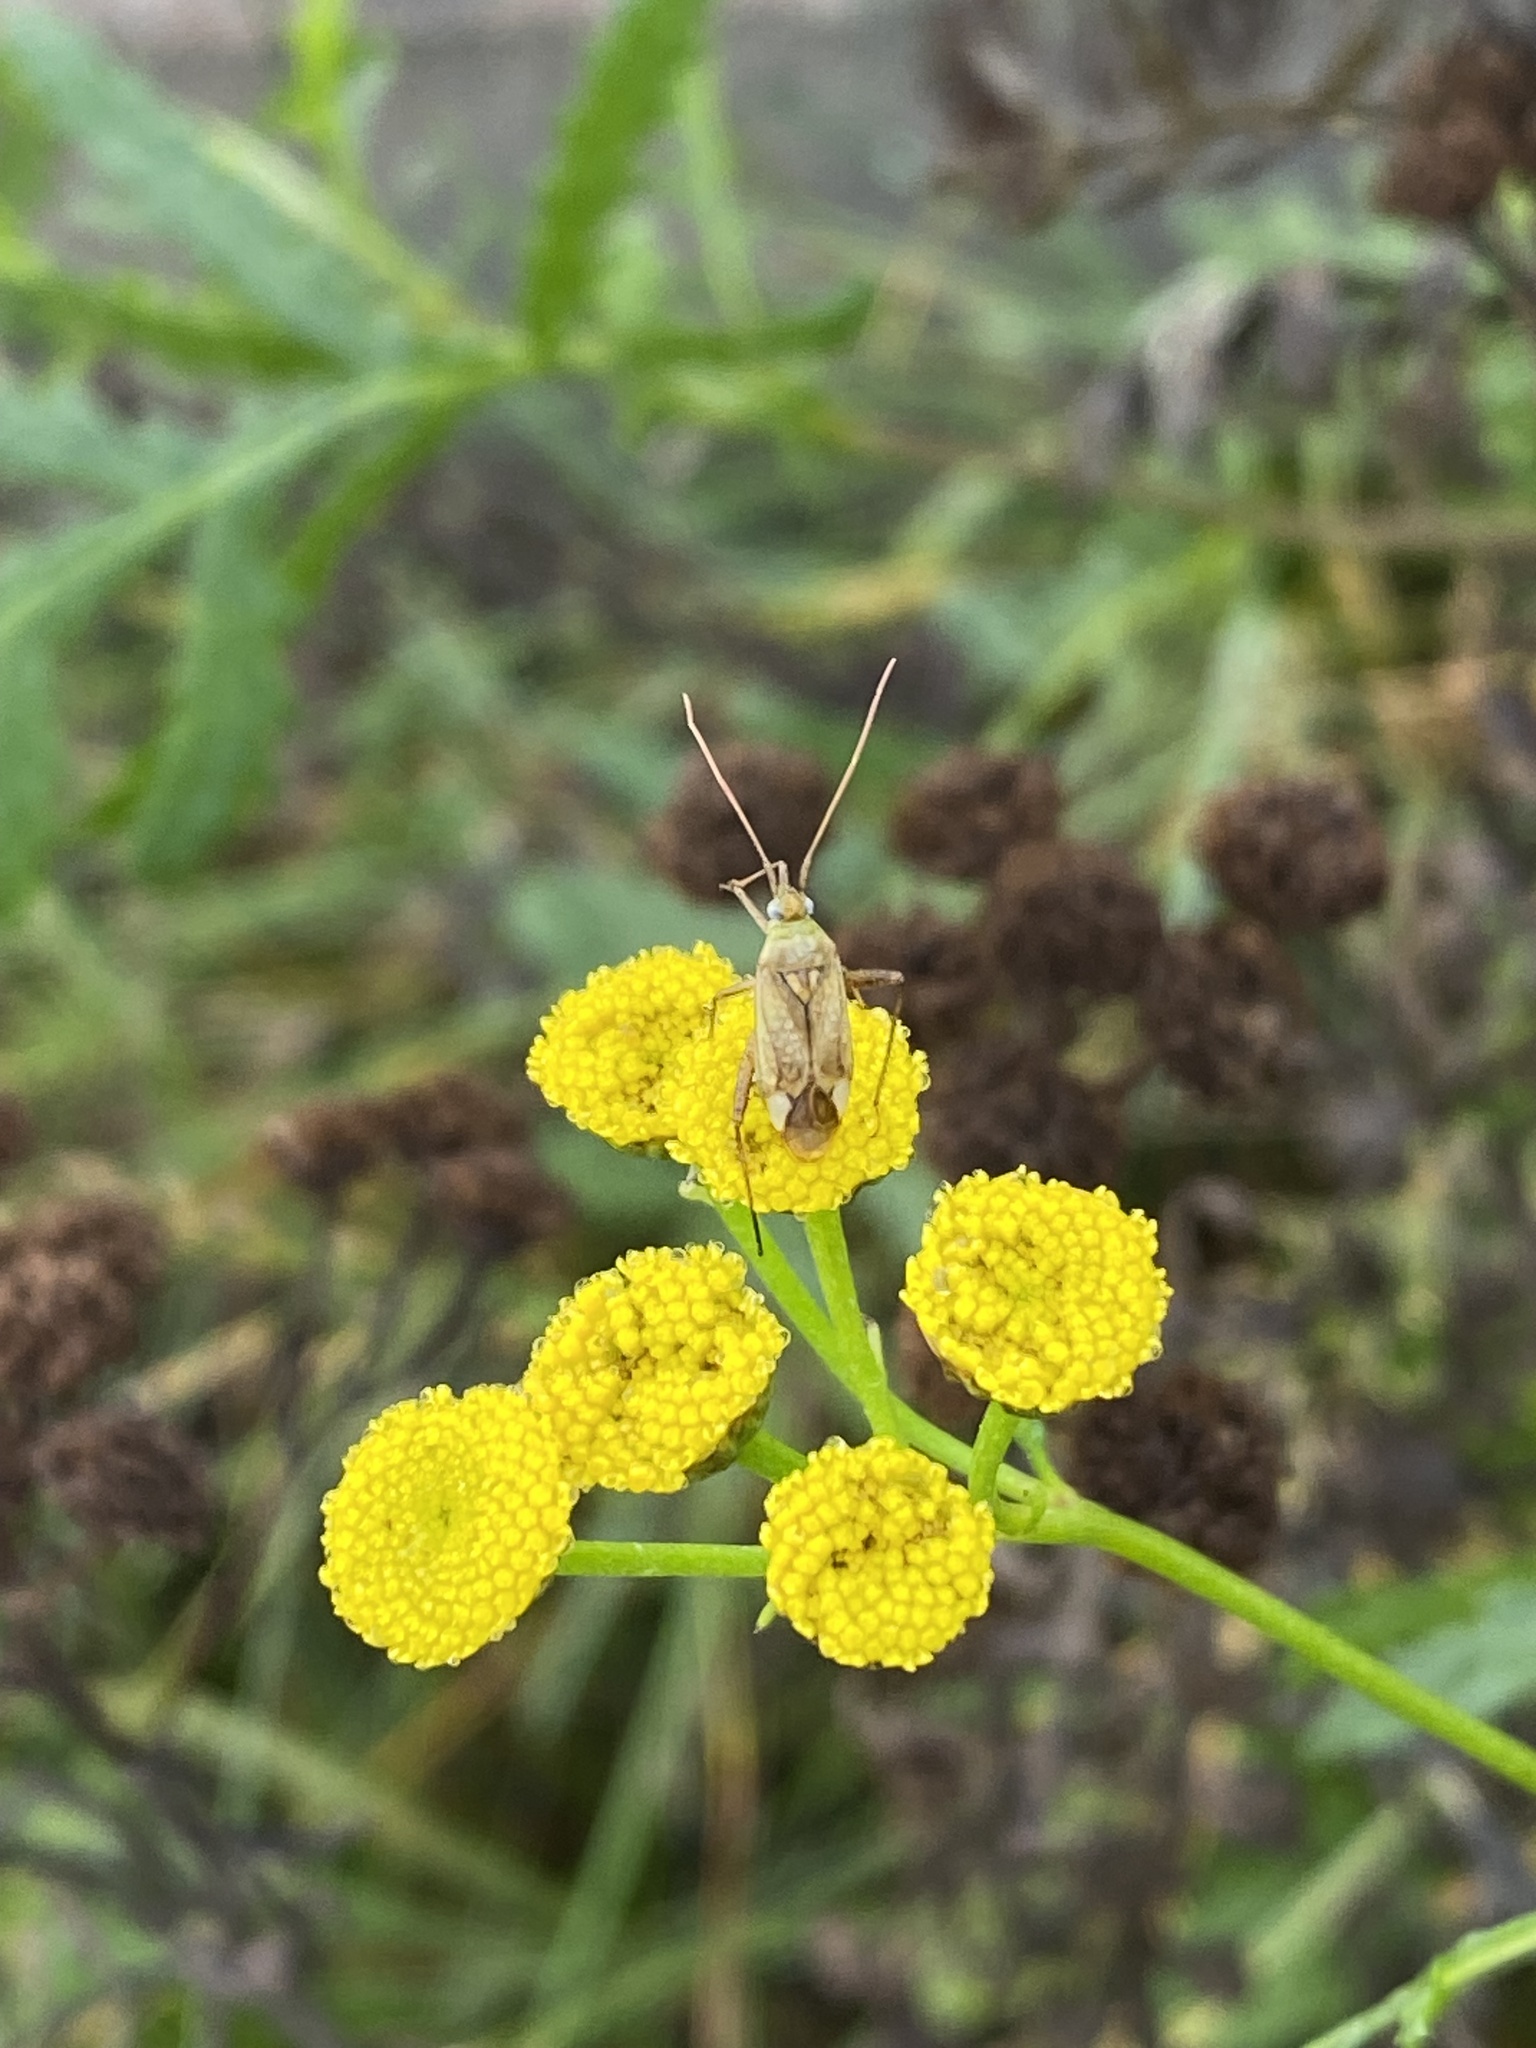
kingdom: Animalia
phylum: Arthropoda
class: Insecta
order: Hemiptera
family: Miridae
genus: Adelphocoris
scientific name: Adelphocoris lineolatus
